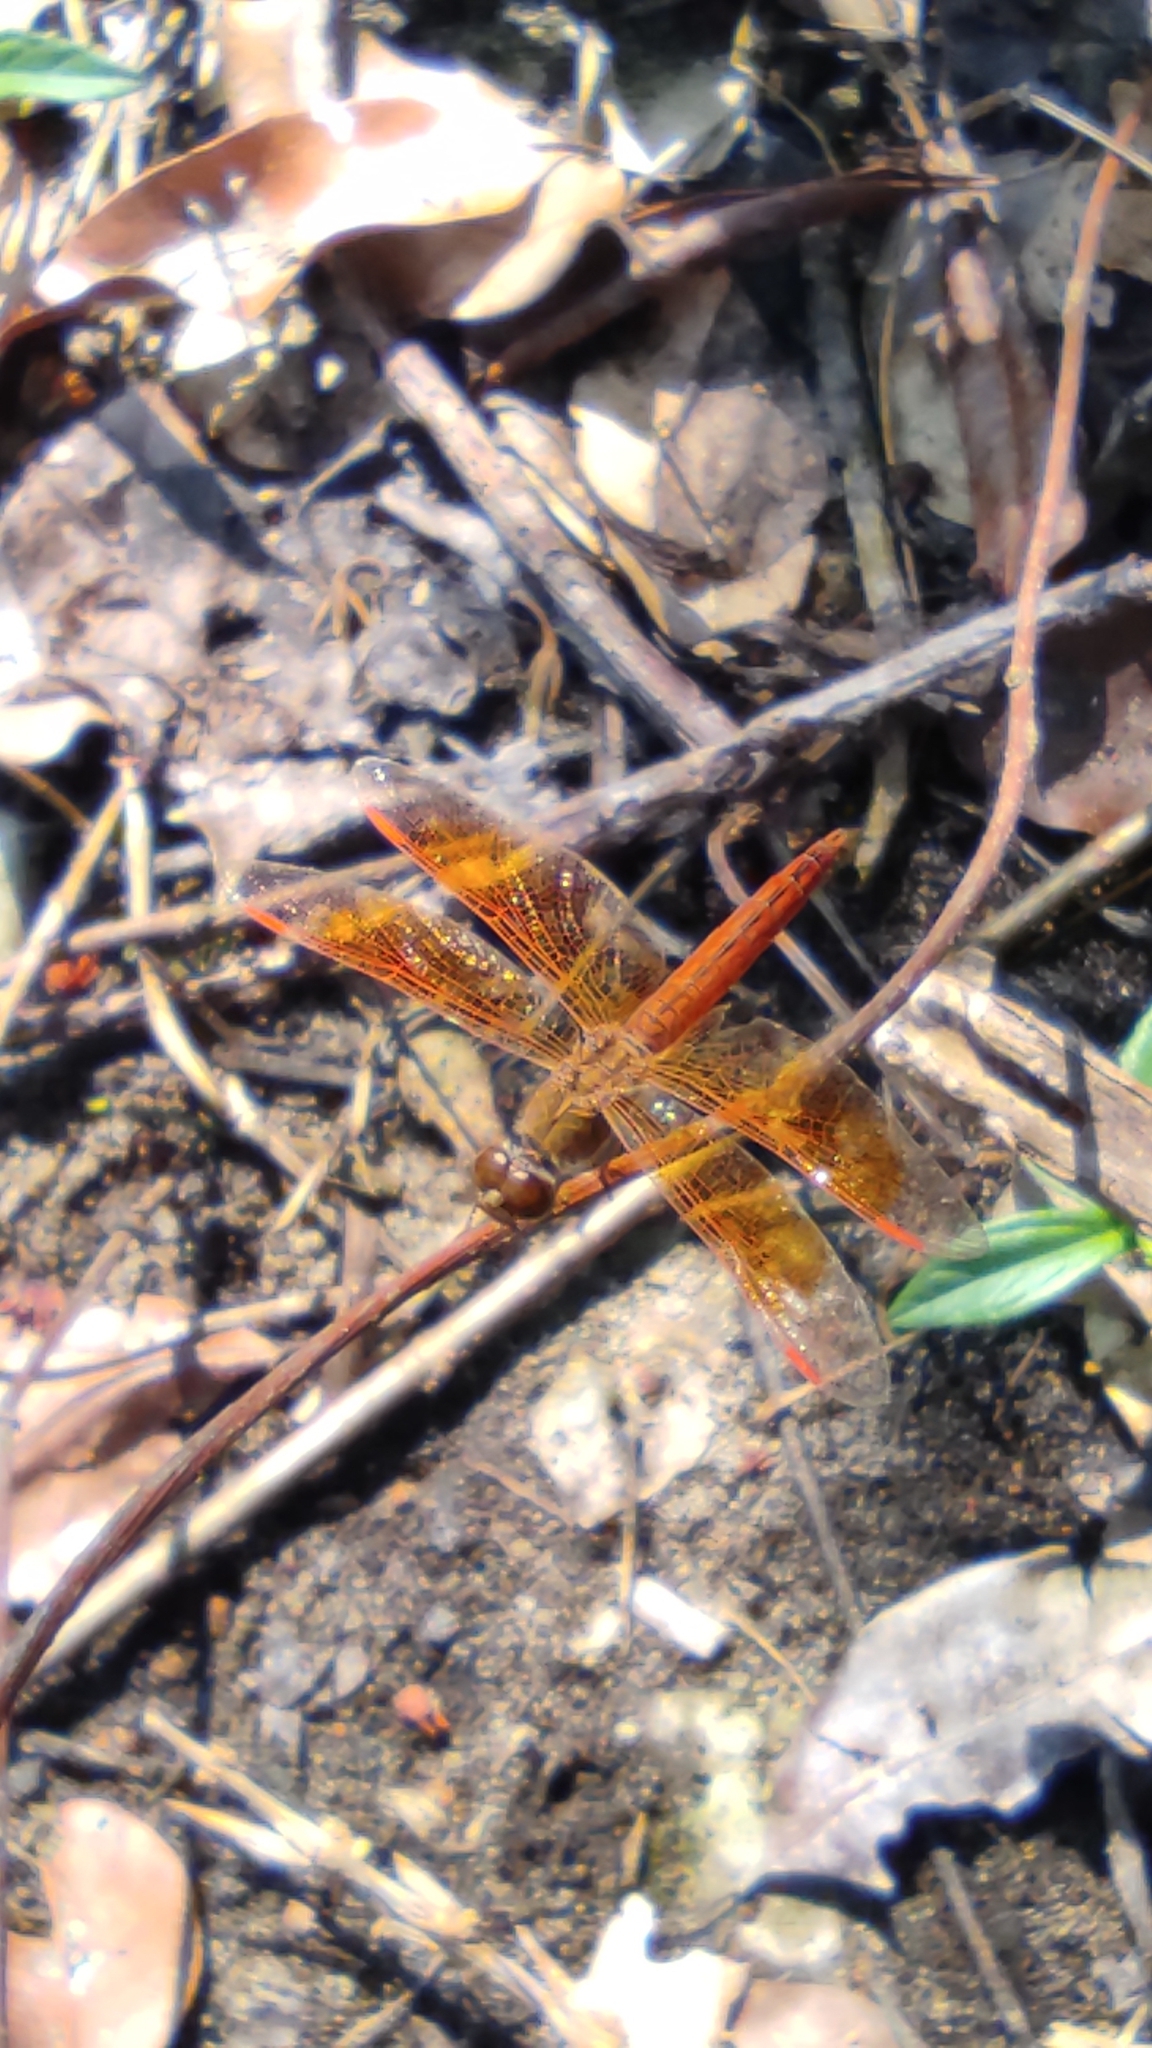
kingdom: Animalia
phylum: Arthropoda
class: Insecta
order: Odonata
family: Libellulidae
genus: Brachythemis
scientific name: Brachythemis contaminata
